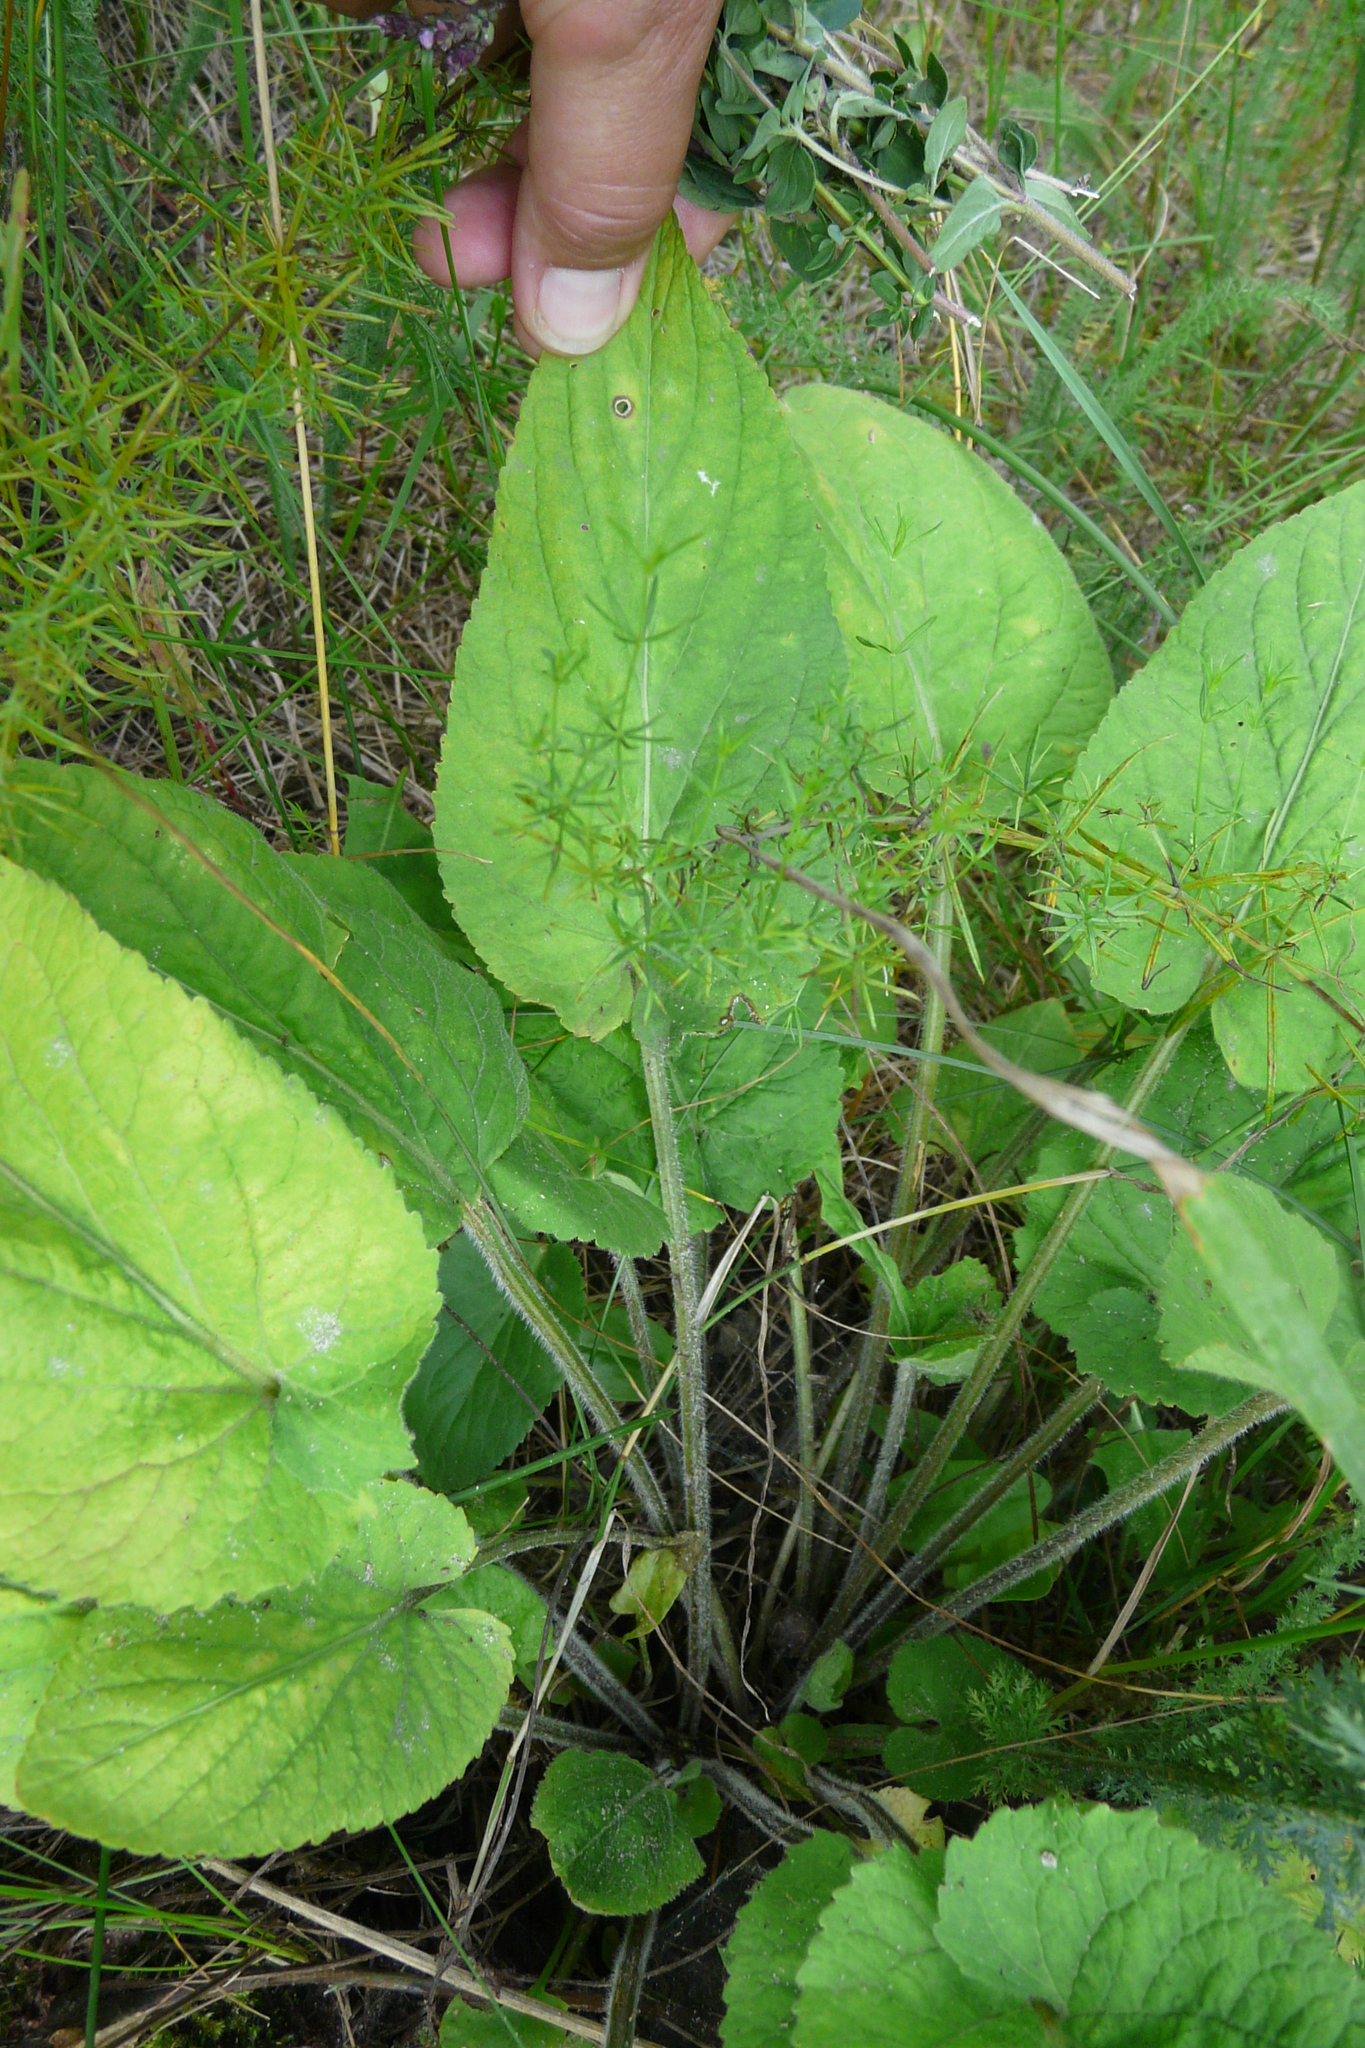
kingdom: Plantae
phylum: Tracheophyta
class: Magnoliopsida
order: Malpighiales
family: Violaceae
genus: Viola
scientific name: Viola hirta
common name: Hairy violet
